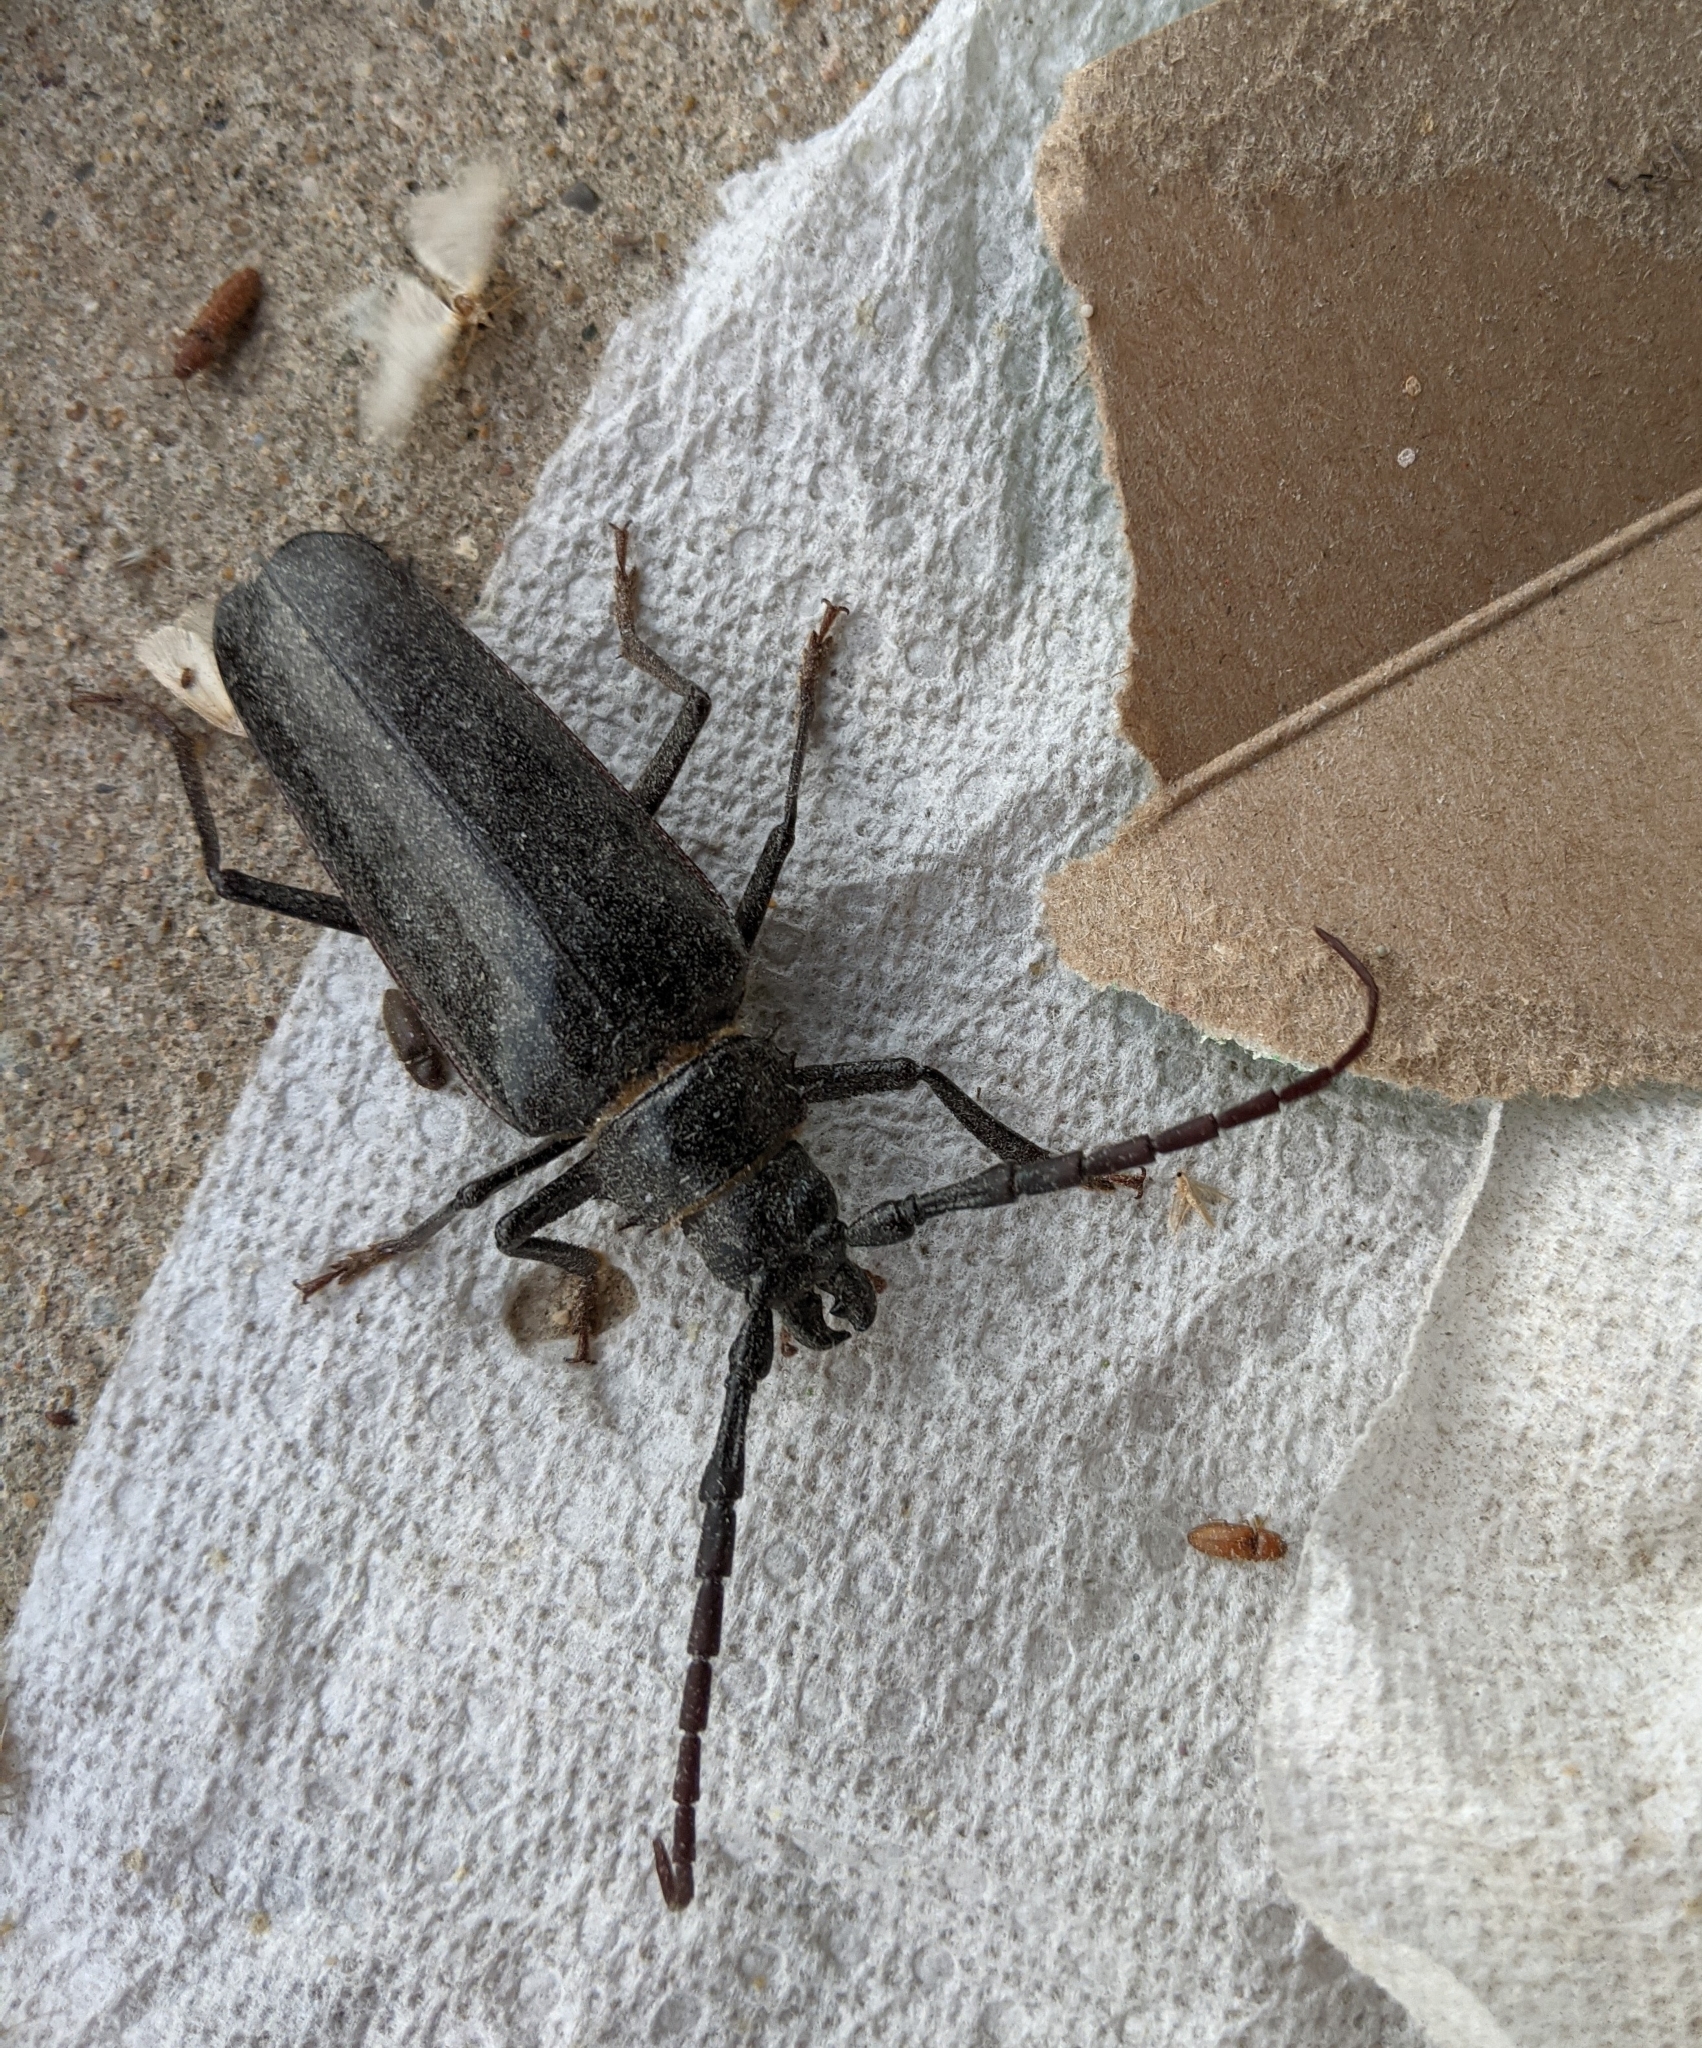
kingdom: Animalia
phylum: Arthropoda
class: Insecta
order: Coleoptera
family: Cerambycidae
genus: Derobrachus
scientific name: Derobrachus hovorei
